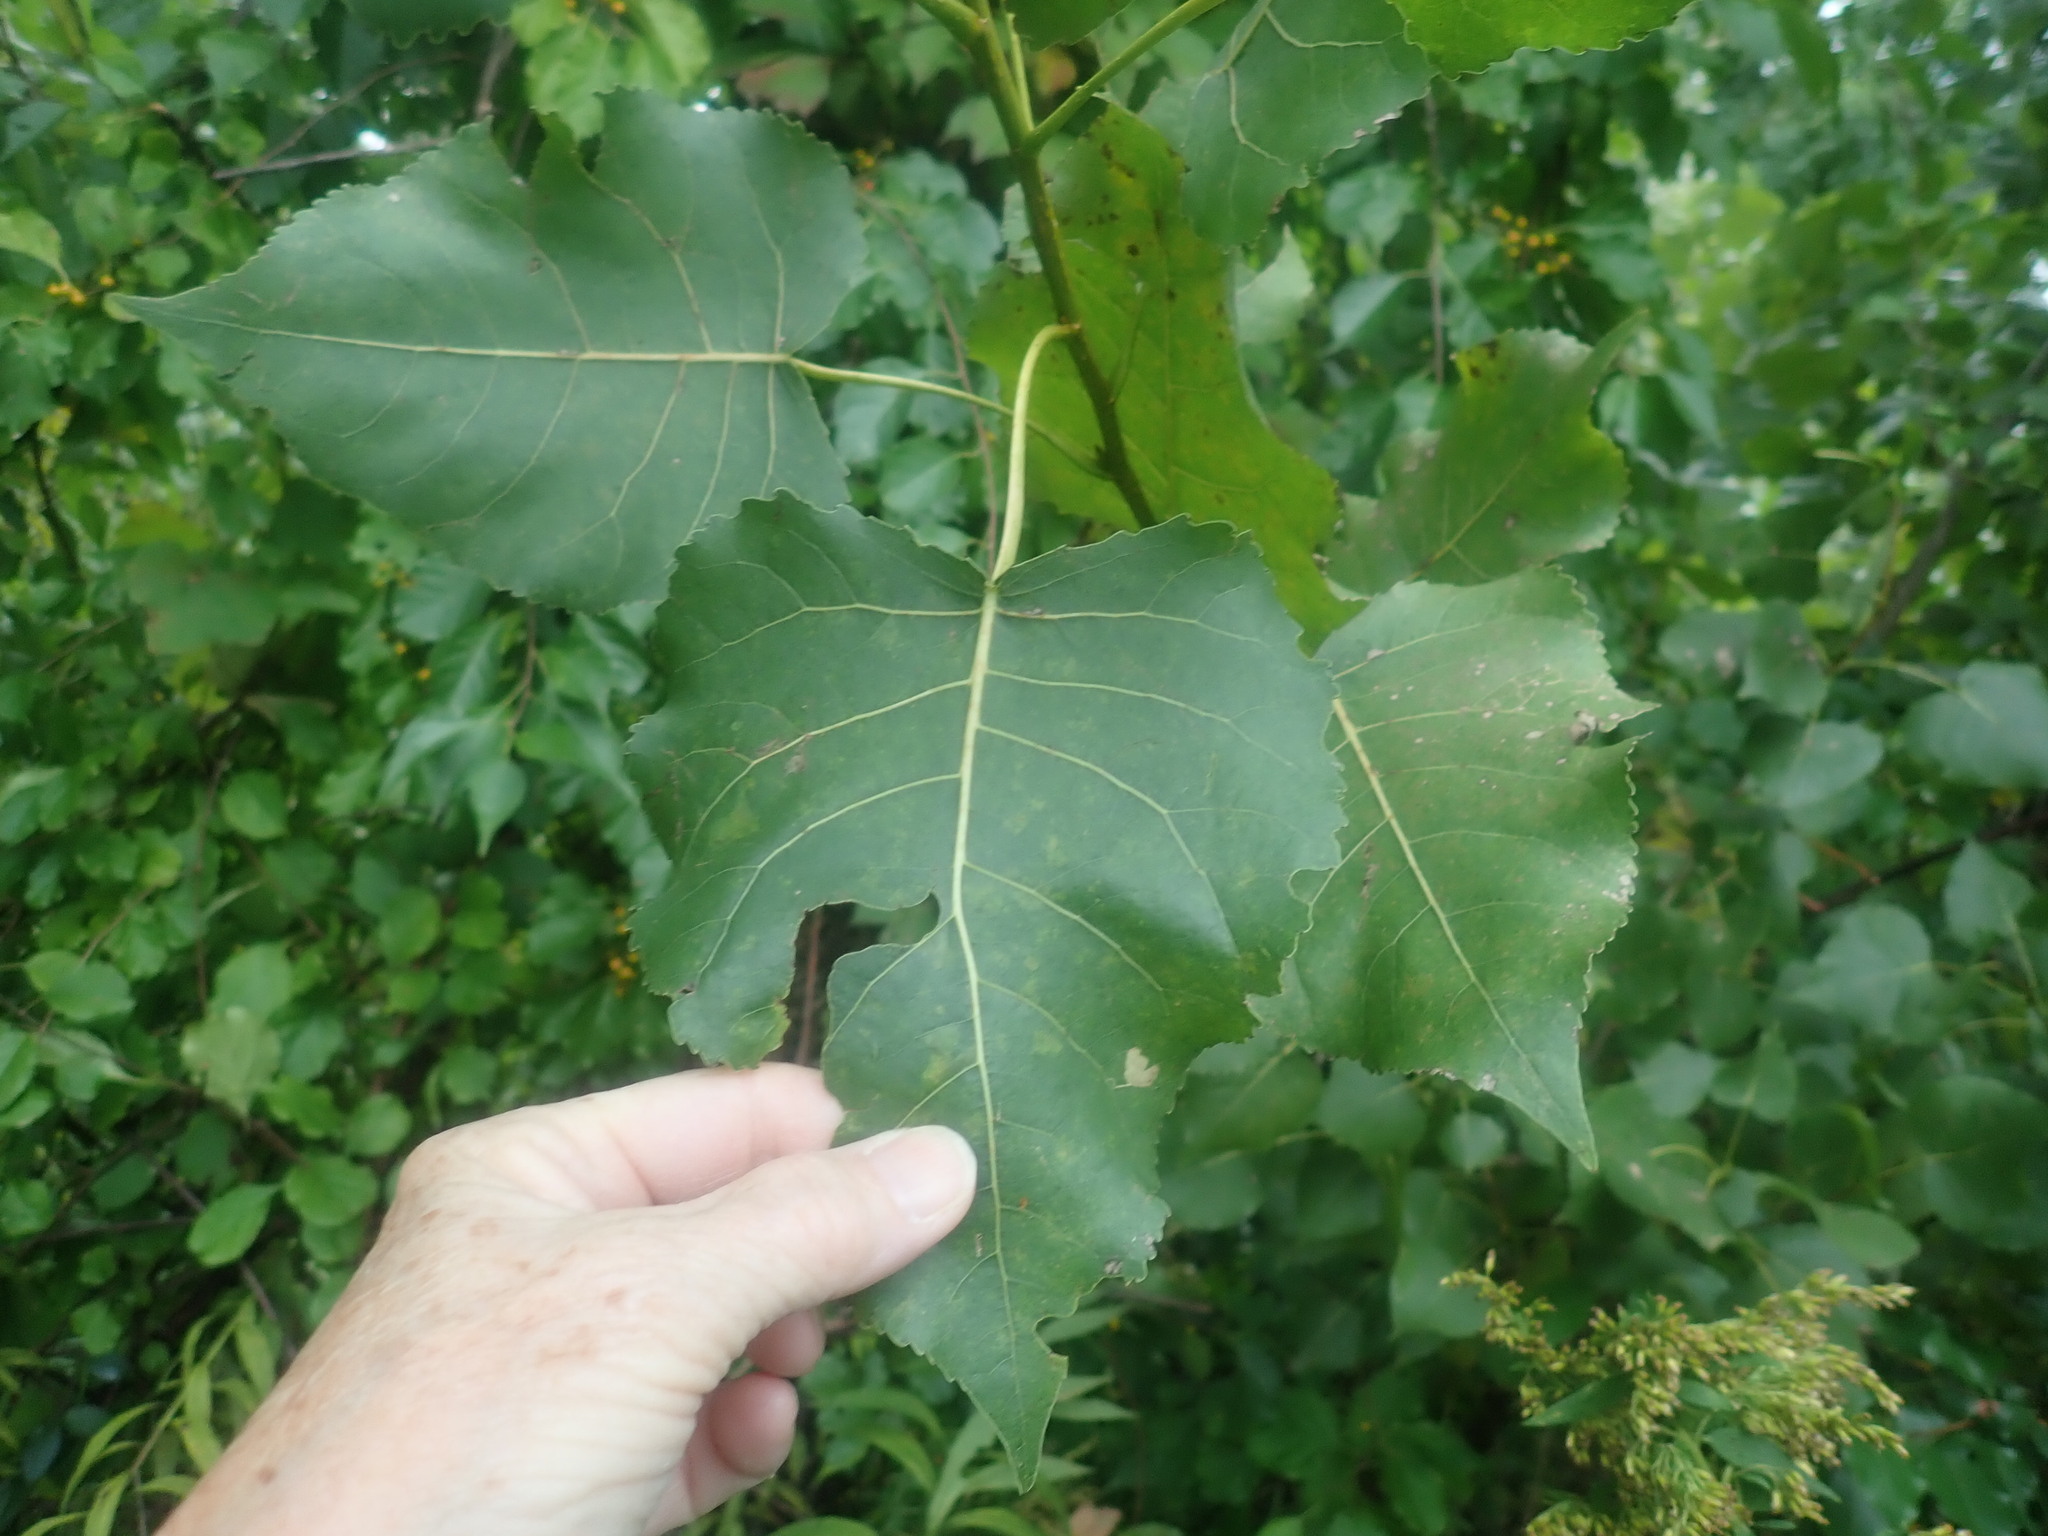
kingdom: Plantae
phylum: Tracheophyta
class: Magnoliopsida
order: Malpighiales
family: Salicaceae
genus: Populus
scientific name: Populus deltoides
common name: Eastern cottonwood
